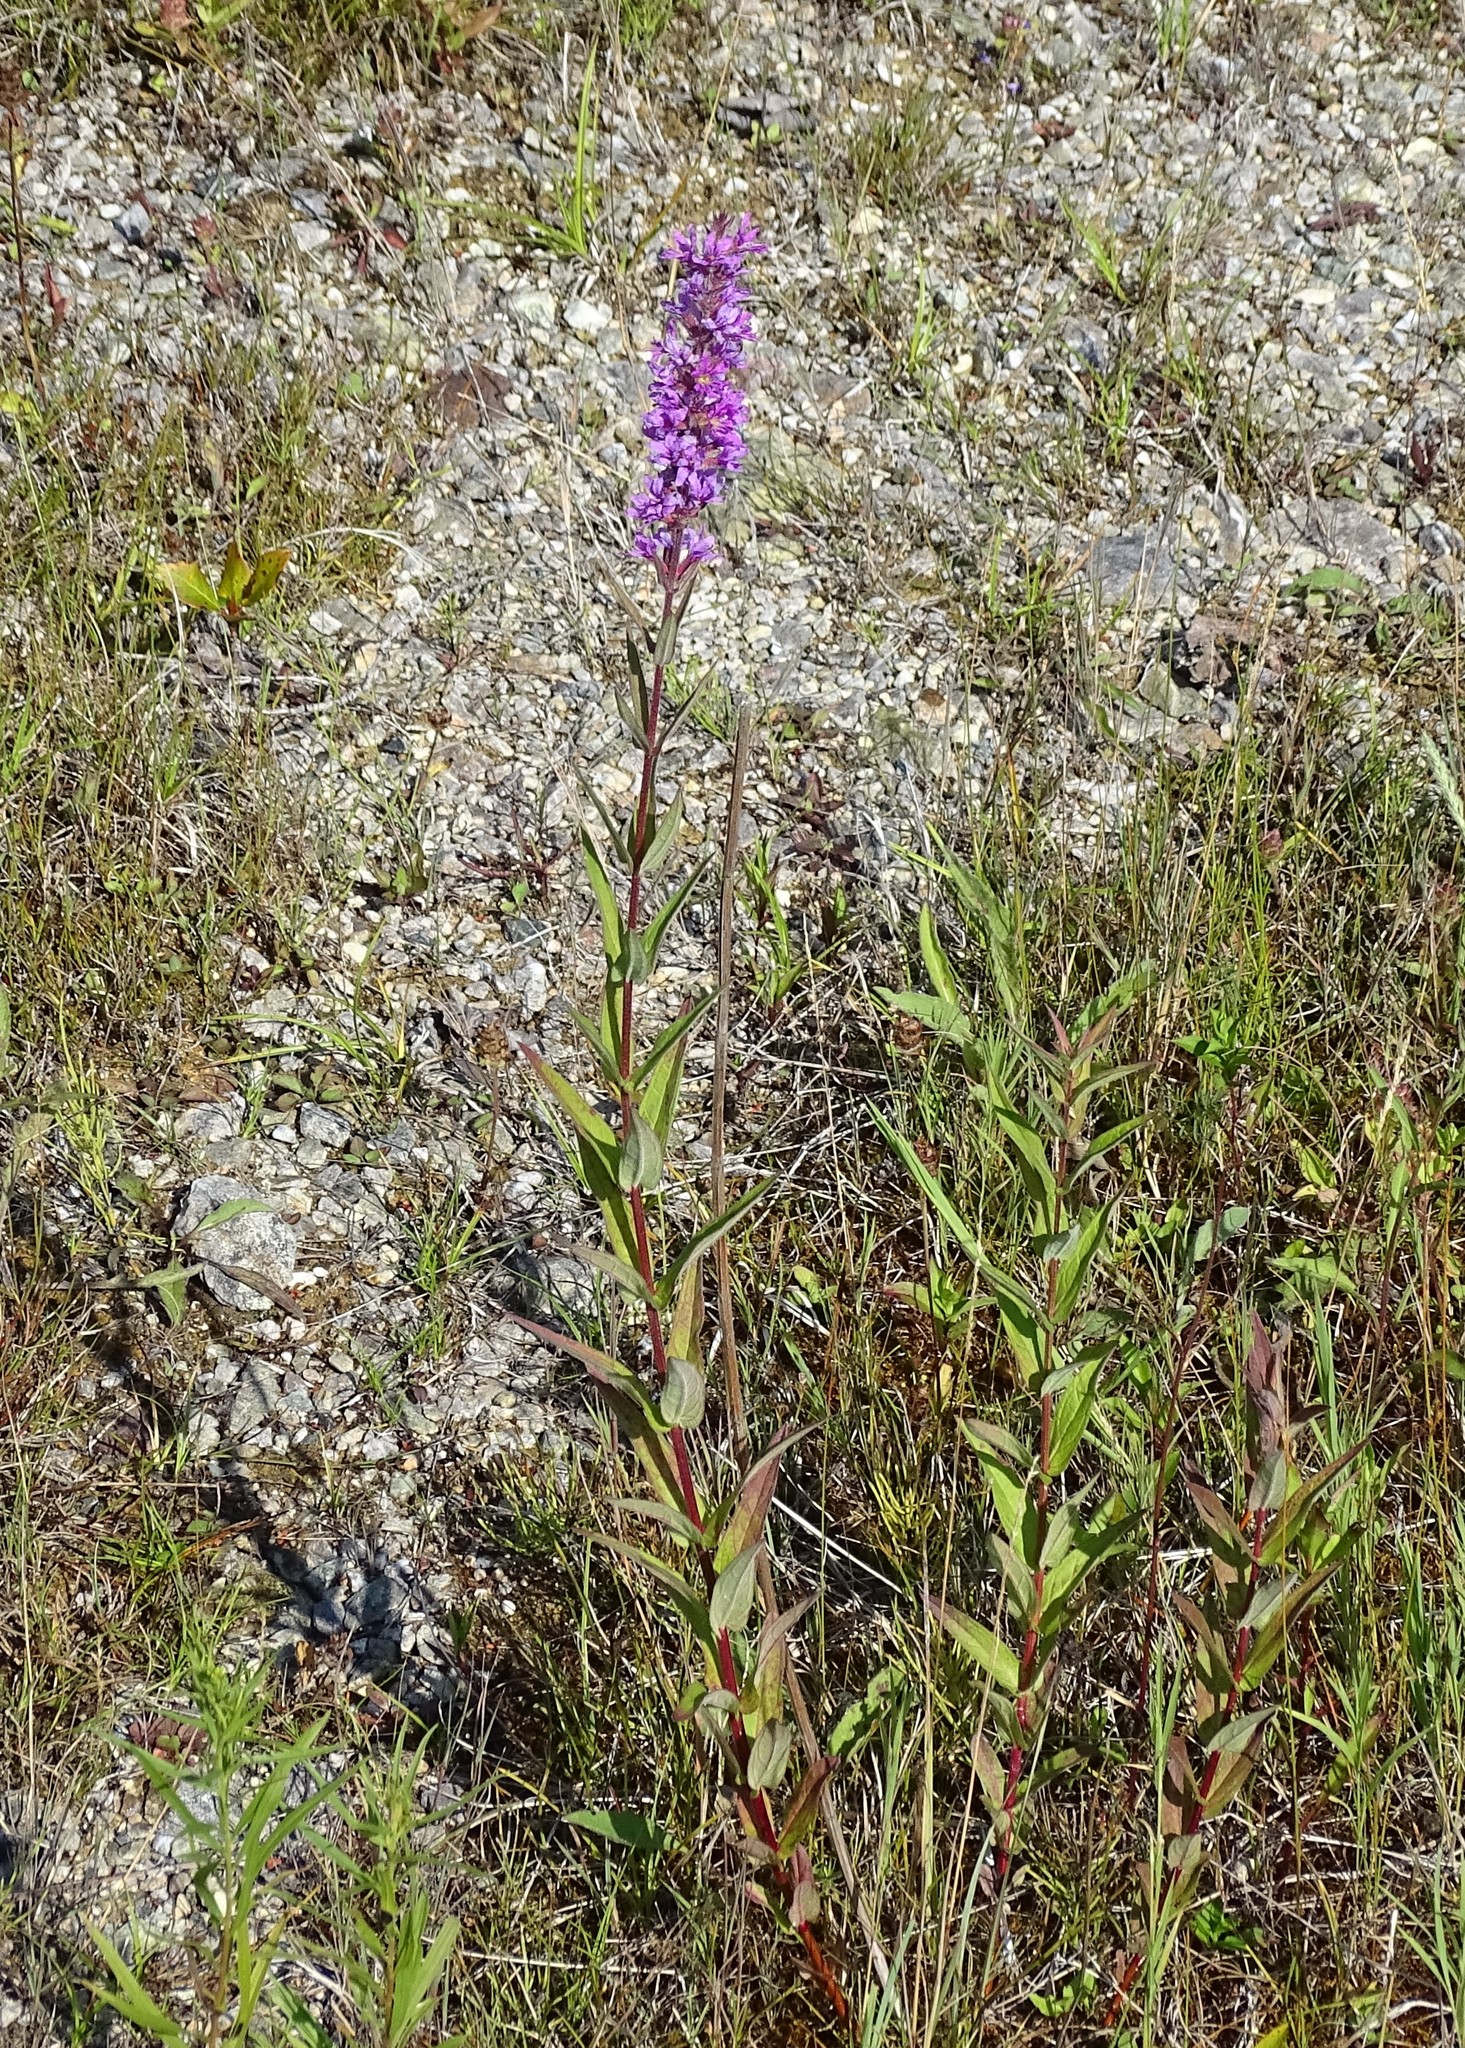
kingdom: Plantae
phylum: Tracheophyta
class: Magnoliopsida
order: Myrtales
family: Lythraceae
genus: Lythrum
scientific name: Lythrum salicaria
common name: Purple loosestrife
